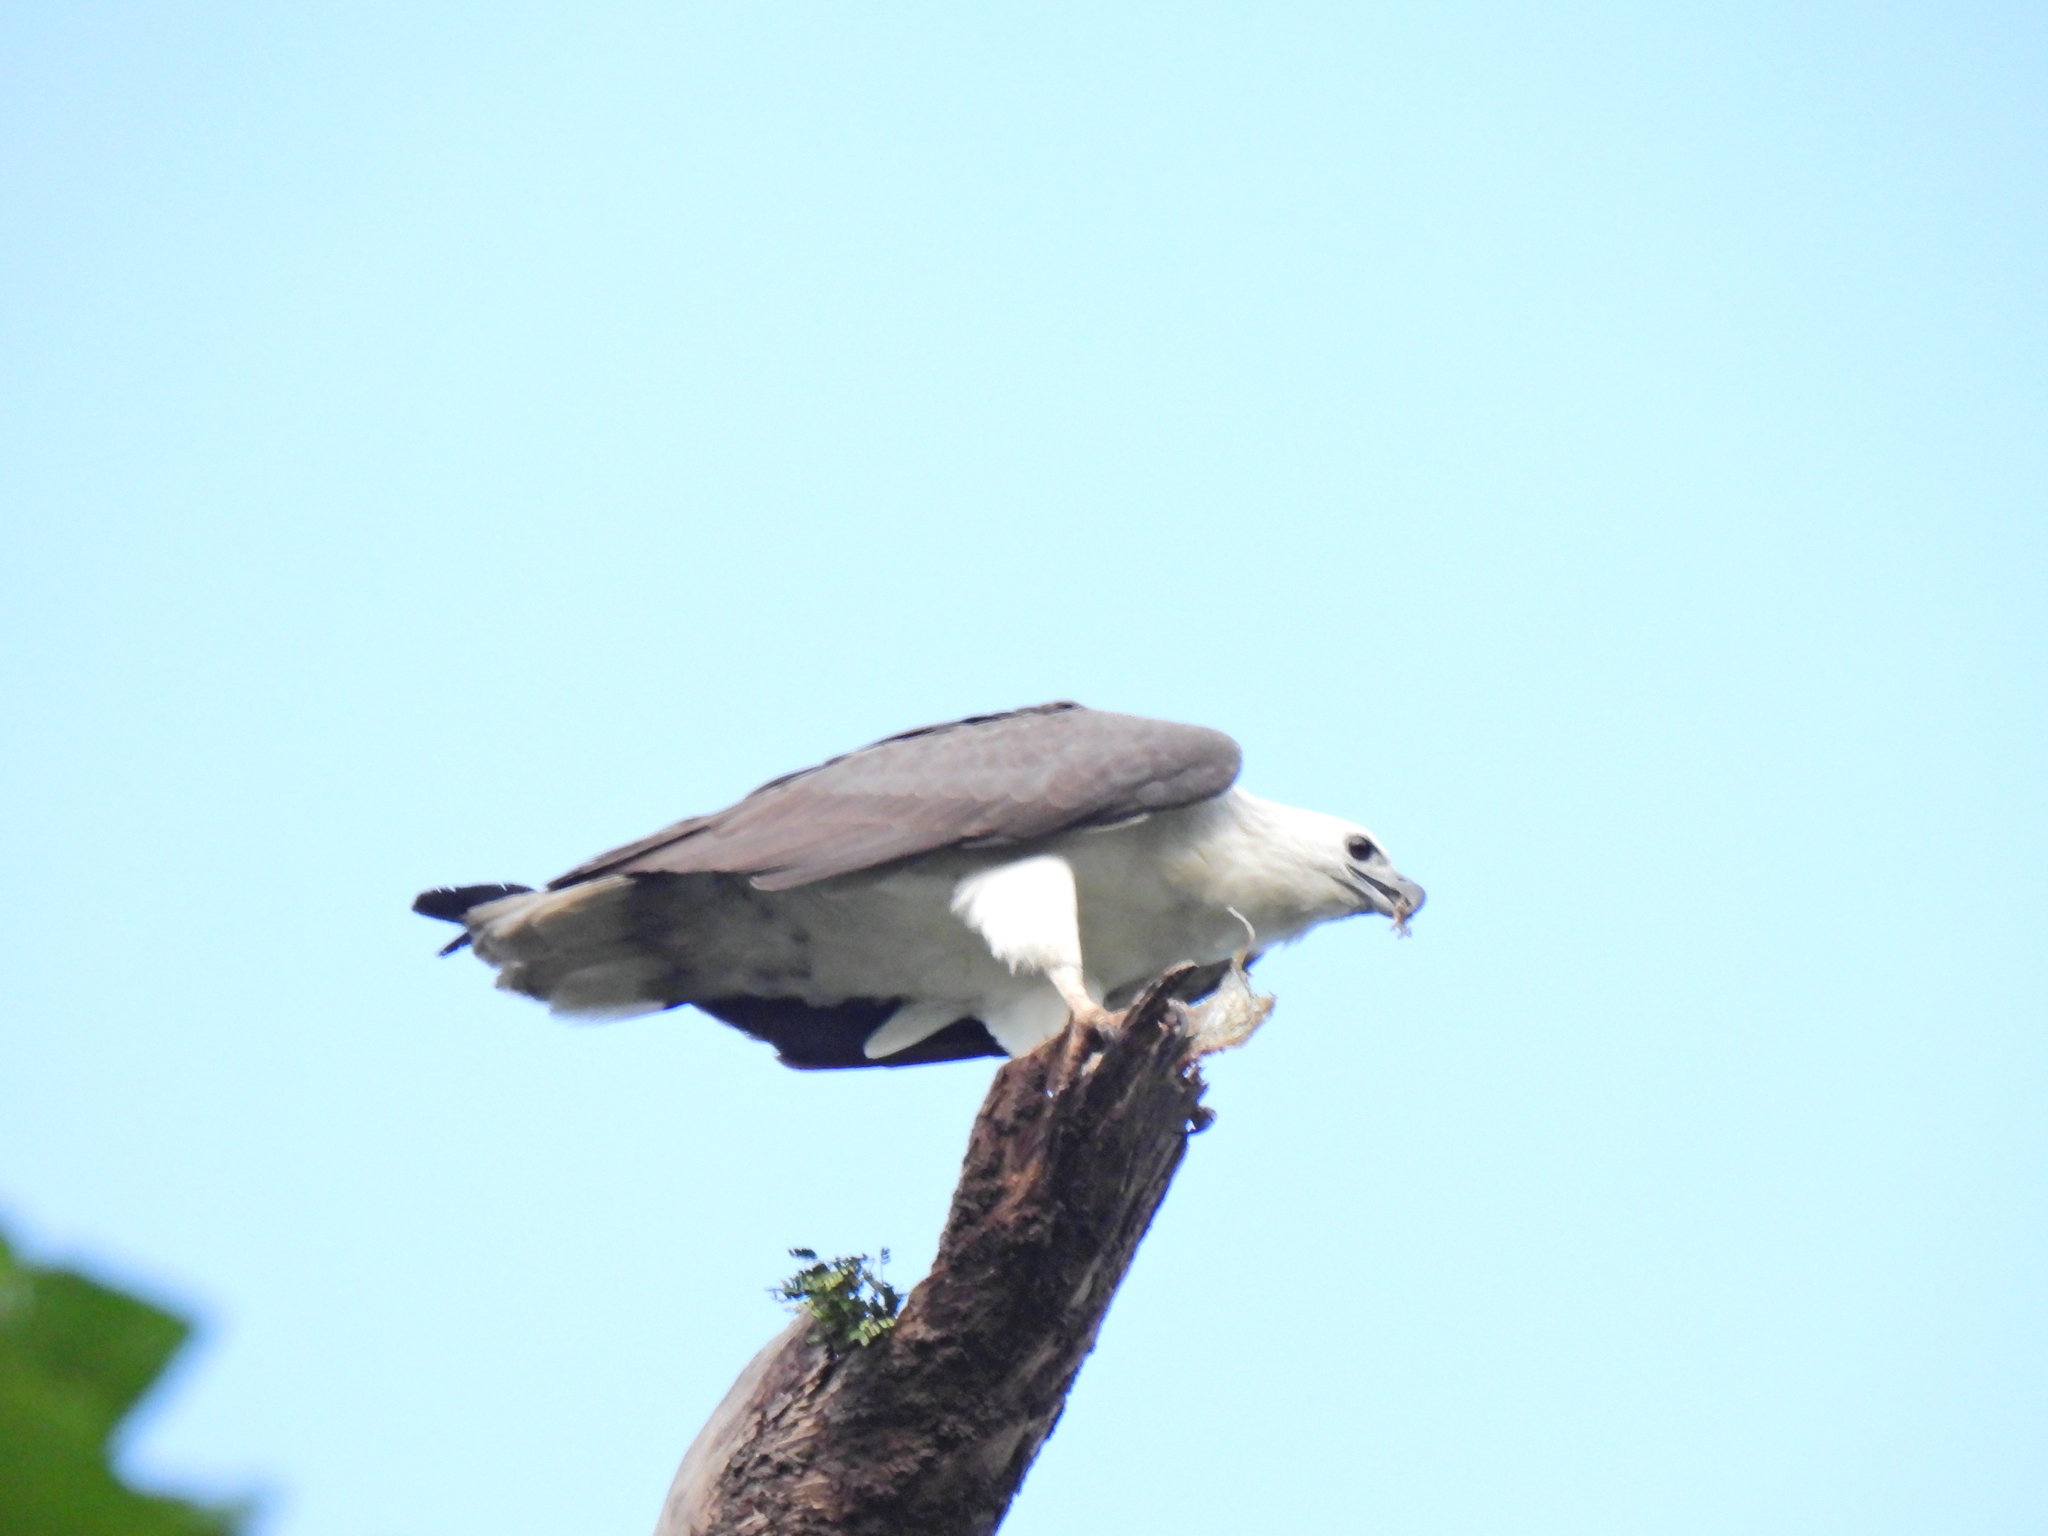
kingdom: Animalia
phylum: Chordata
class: Aves
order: Accipitriformes
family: Accipitridae
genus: Haliaeetus
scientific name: Haliaeetus leucogaster
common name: White-bellied sea eagle
